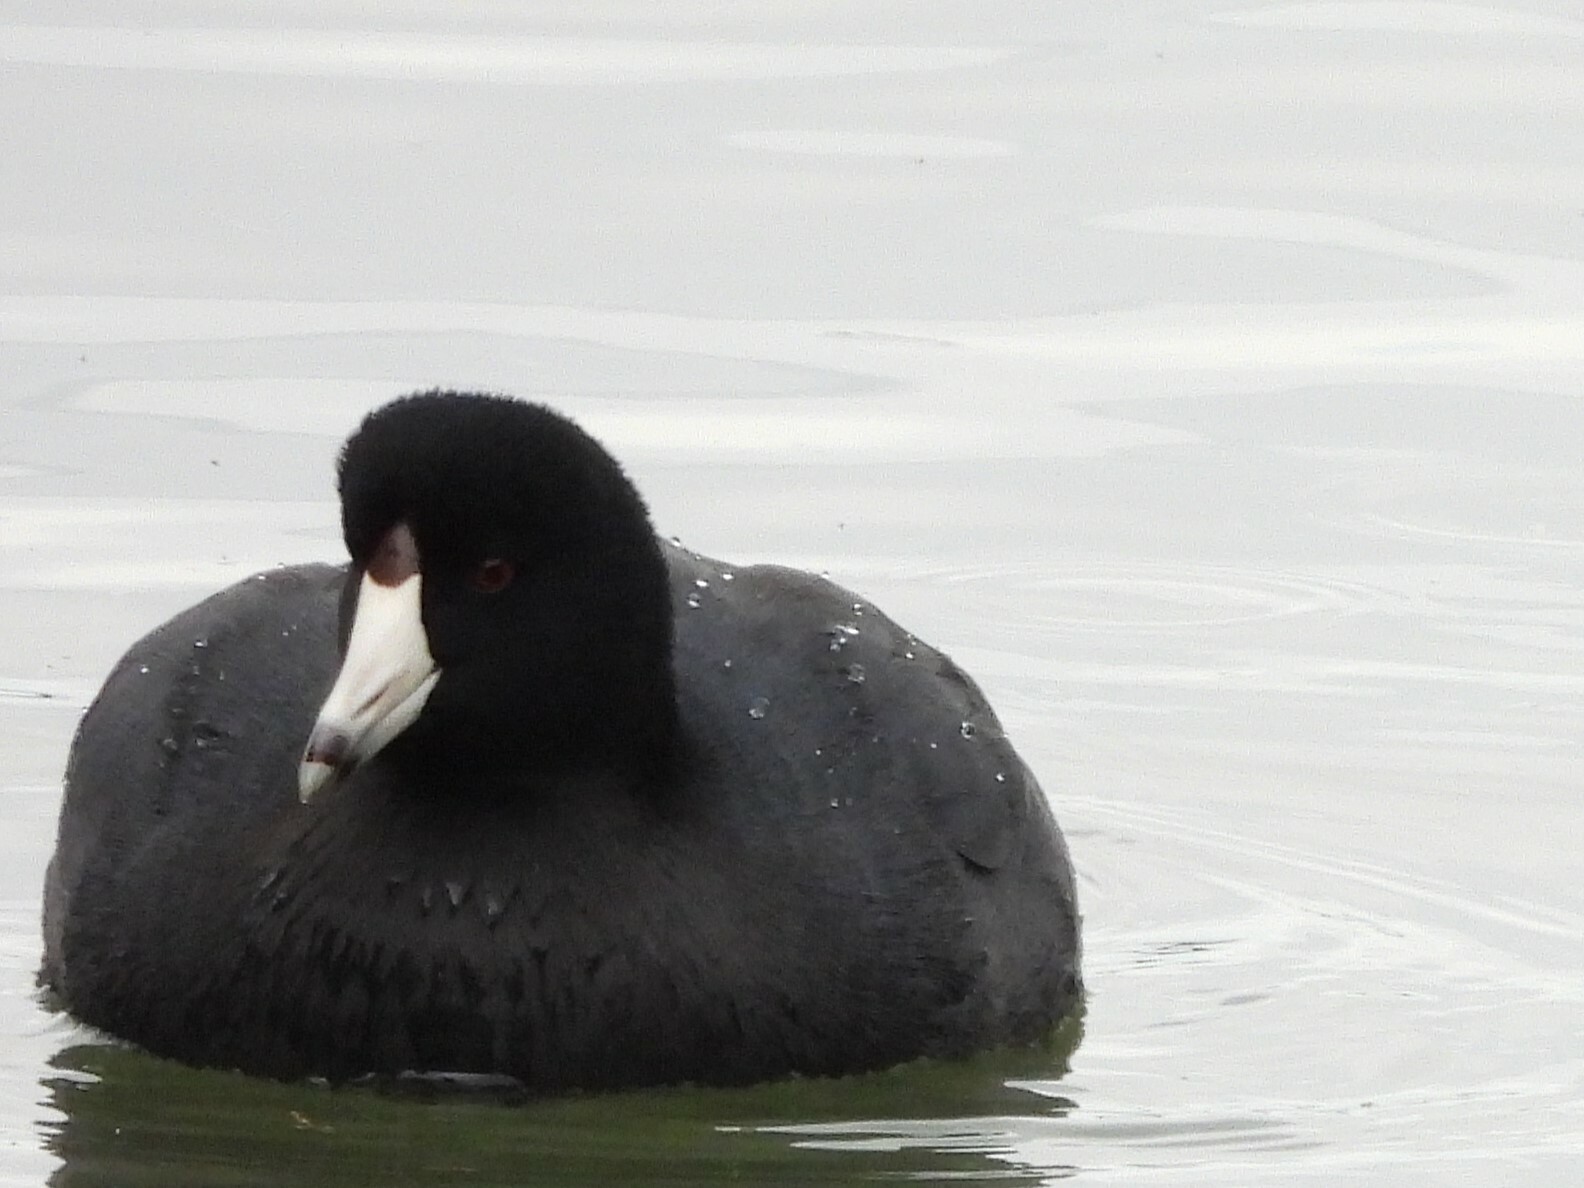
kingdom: Animalia
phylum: Chordata
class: Aves
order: Gruiformes
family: Rallidae
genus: Fulica
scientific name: Fulica americana
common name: American coot
